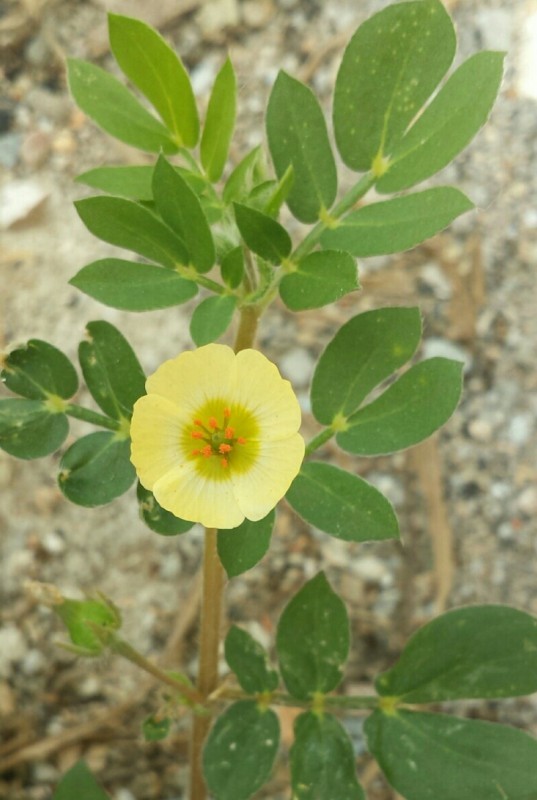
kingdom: Plantae
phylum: Tracheophyta
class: Magnoliopsida
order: Zygophyllales
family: Zygophyllaceae
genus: Kallstroemia
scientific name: Kallstroemia maxima
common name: Big caltropa
